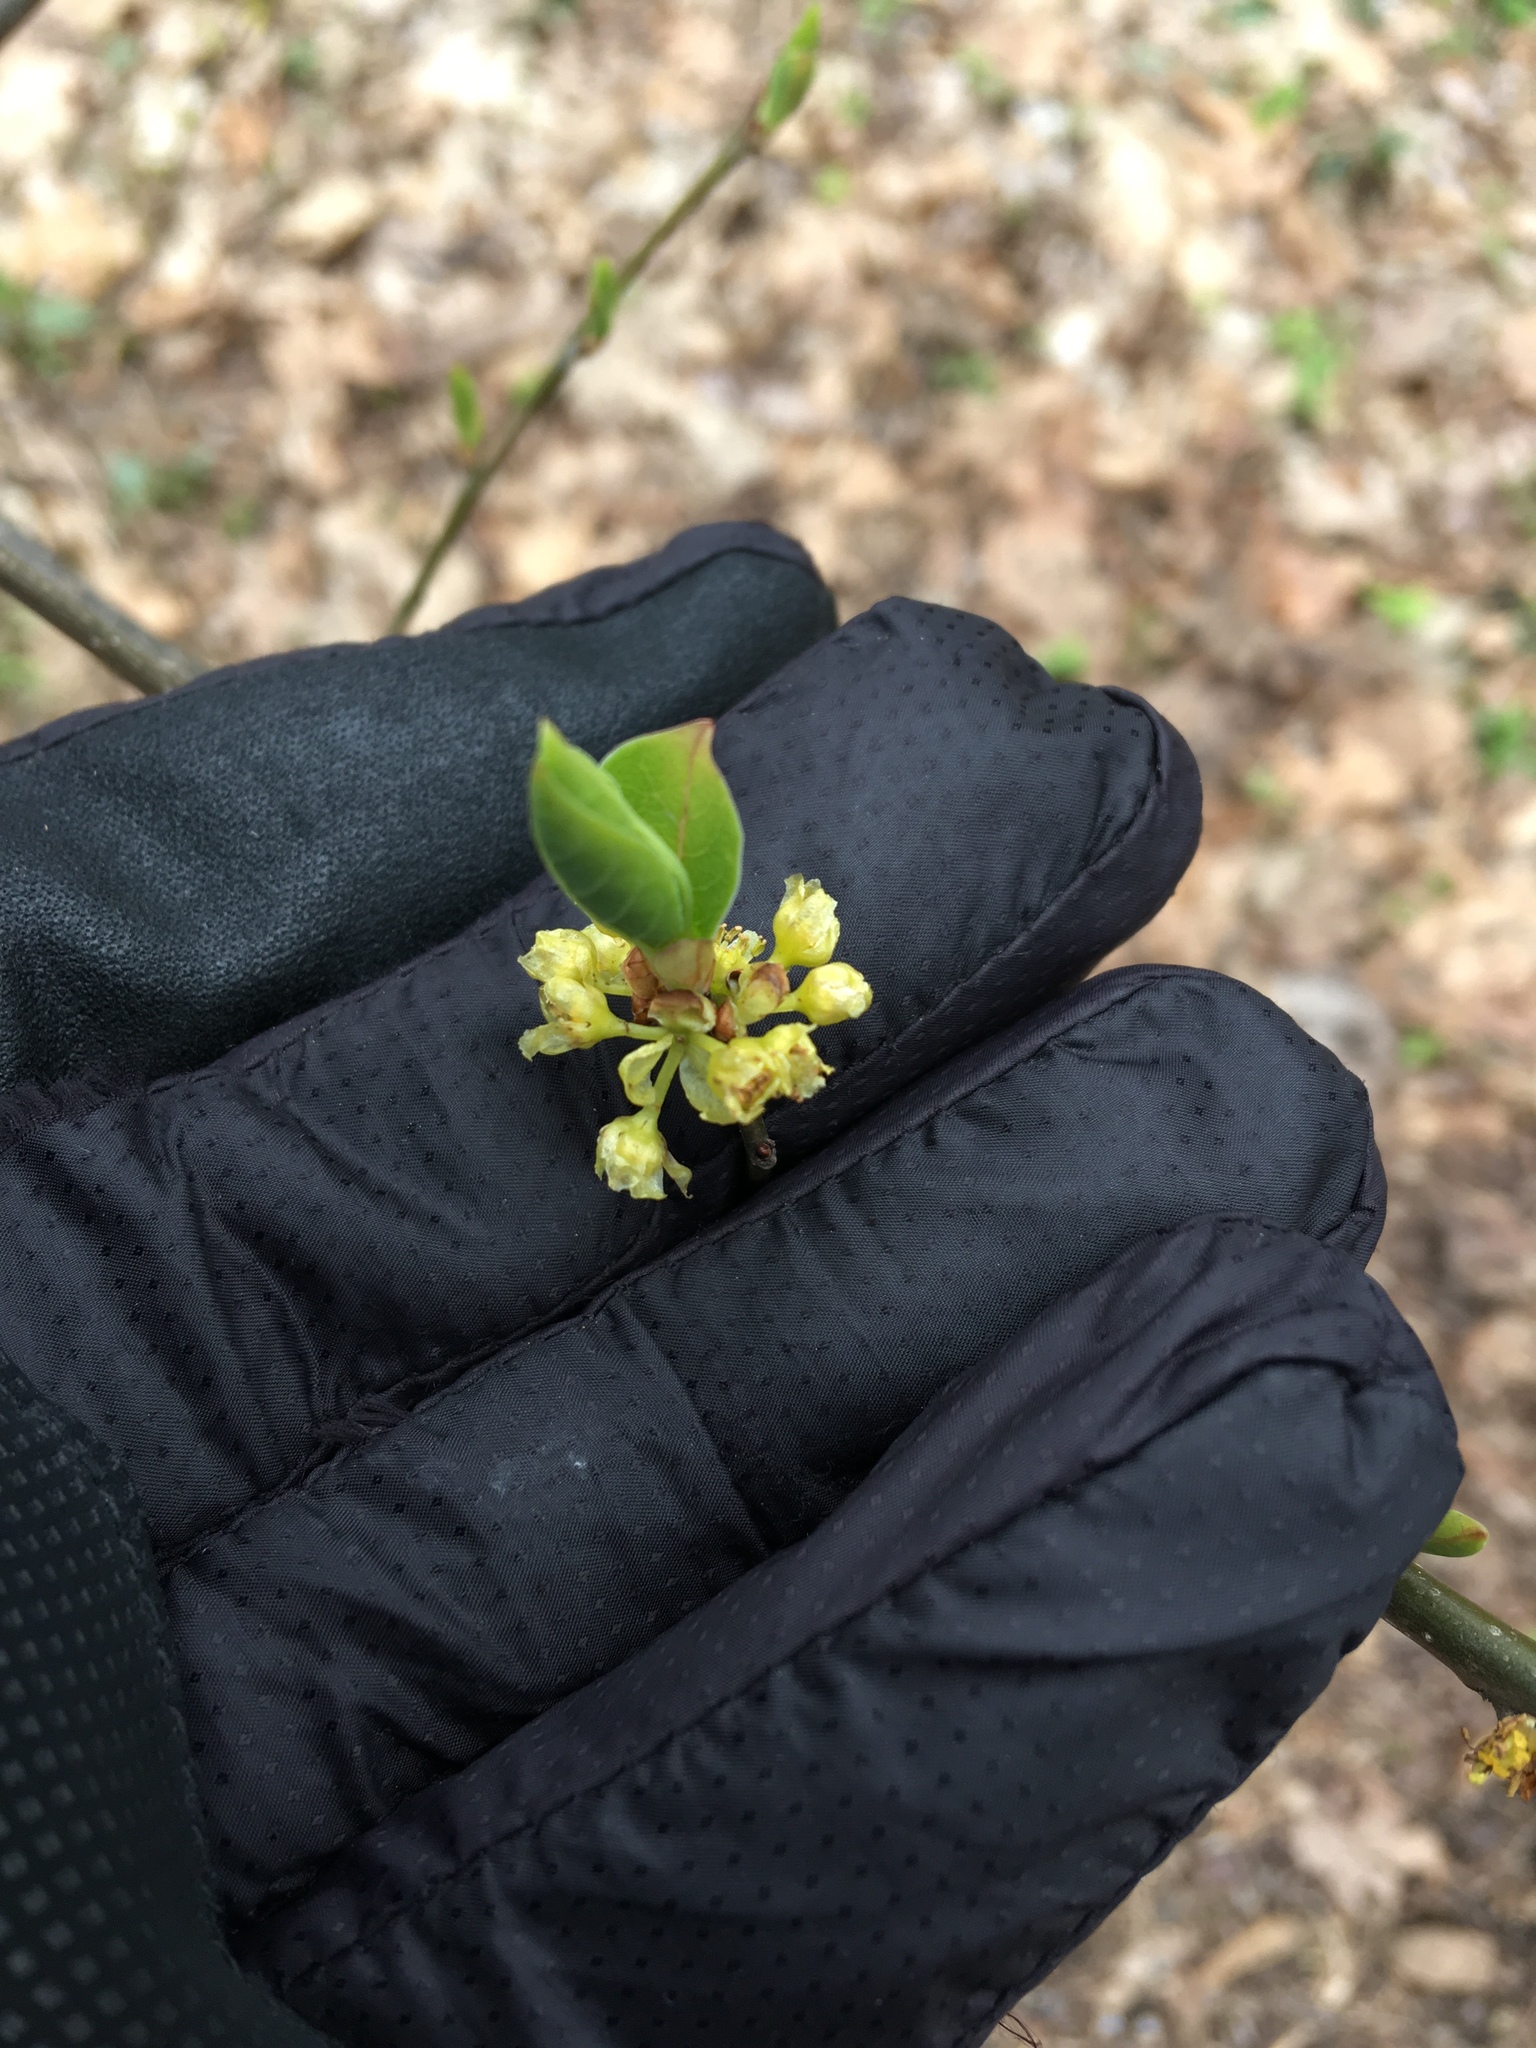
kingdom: Plantae
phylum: Tracheophyta
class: Magnoliopsida
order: Laurales
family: Lauraceae
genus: Lindera
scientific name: Lindera benzoin
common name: Spicebush
